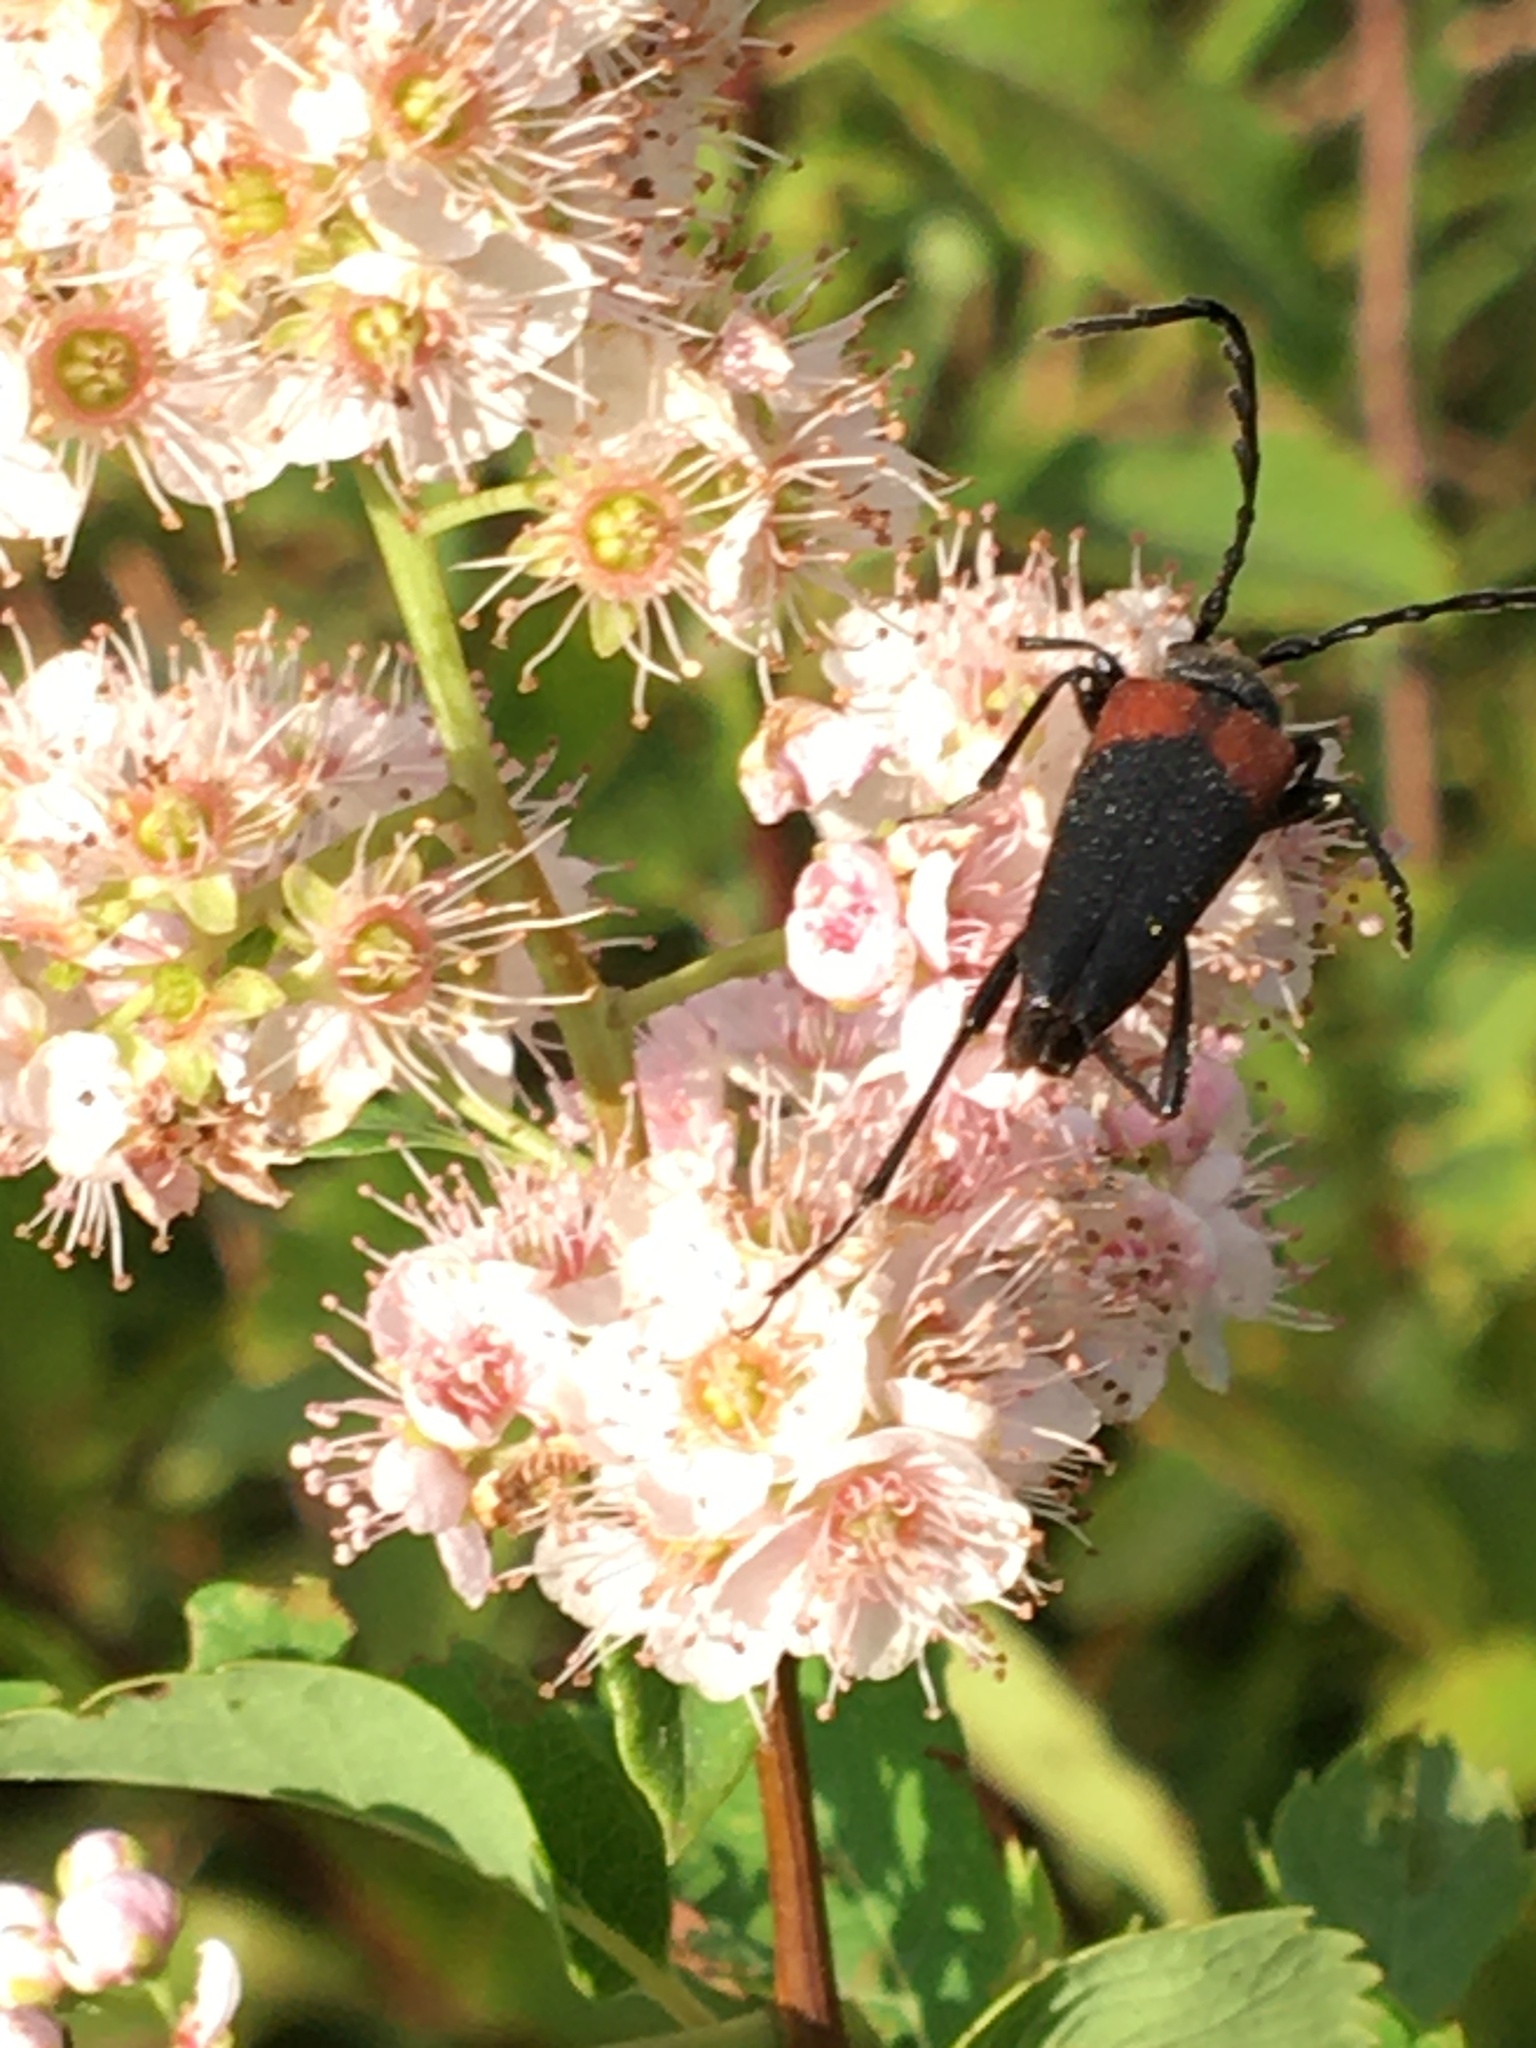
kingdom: Animalia
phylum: Arthropoda
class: Insecta
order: Coleoptera
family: Cerambycidae
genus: Stictoleptura
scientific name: Stictoleptura canadensis
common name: Red-shouldered pine borer
